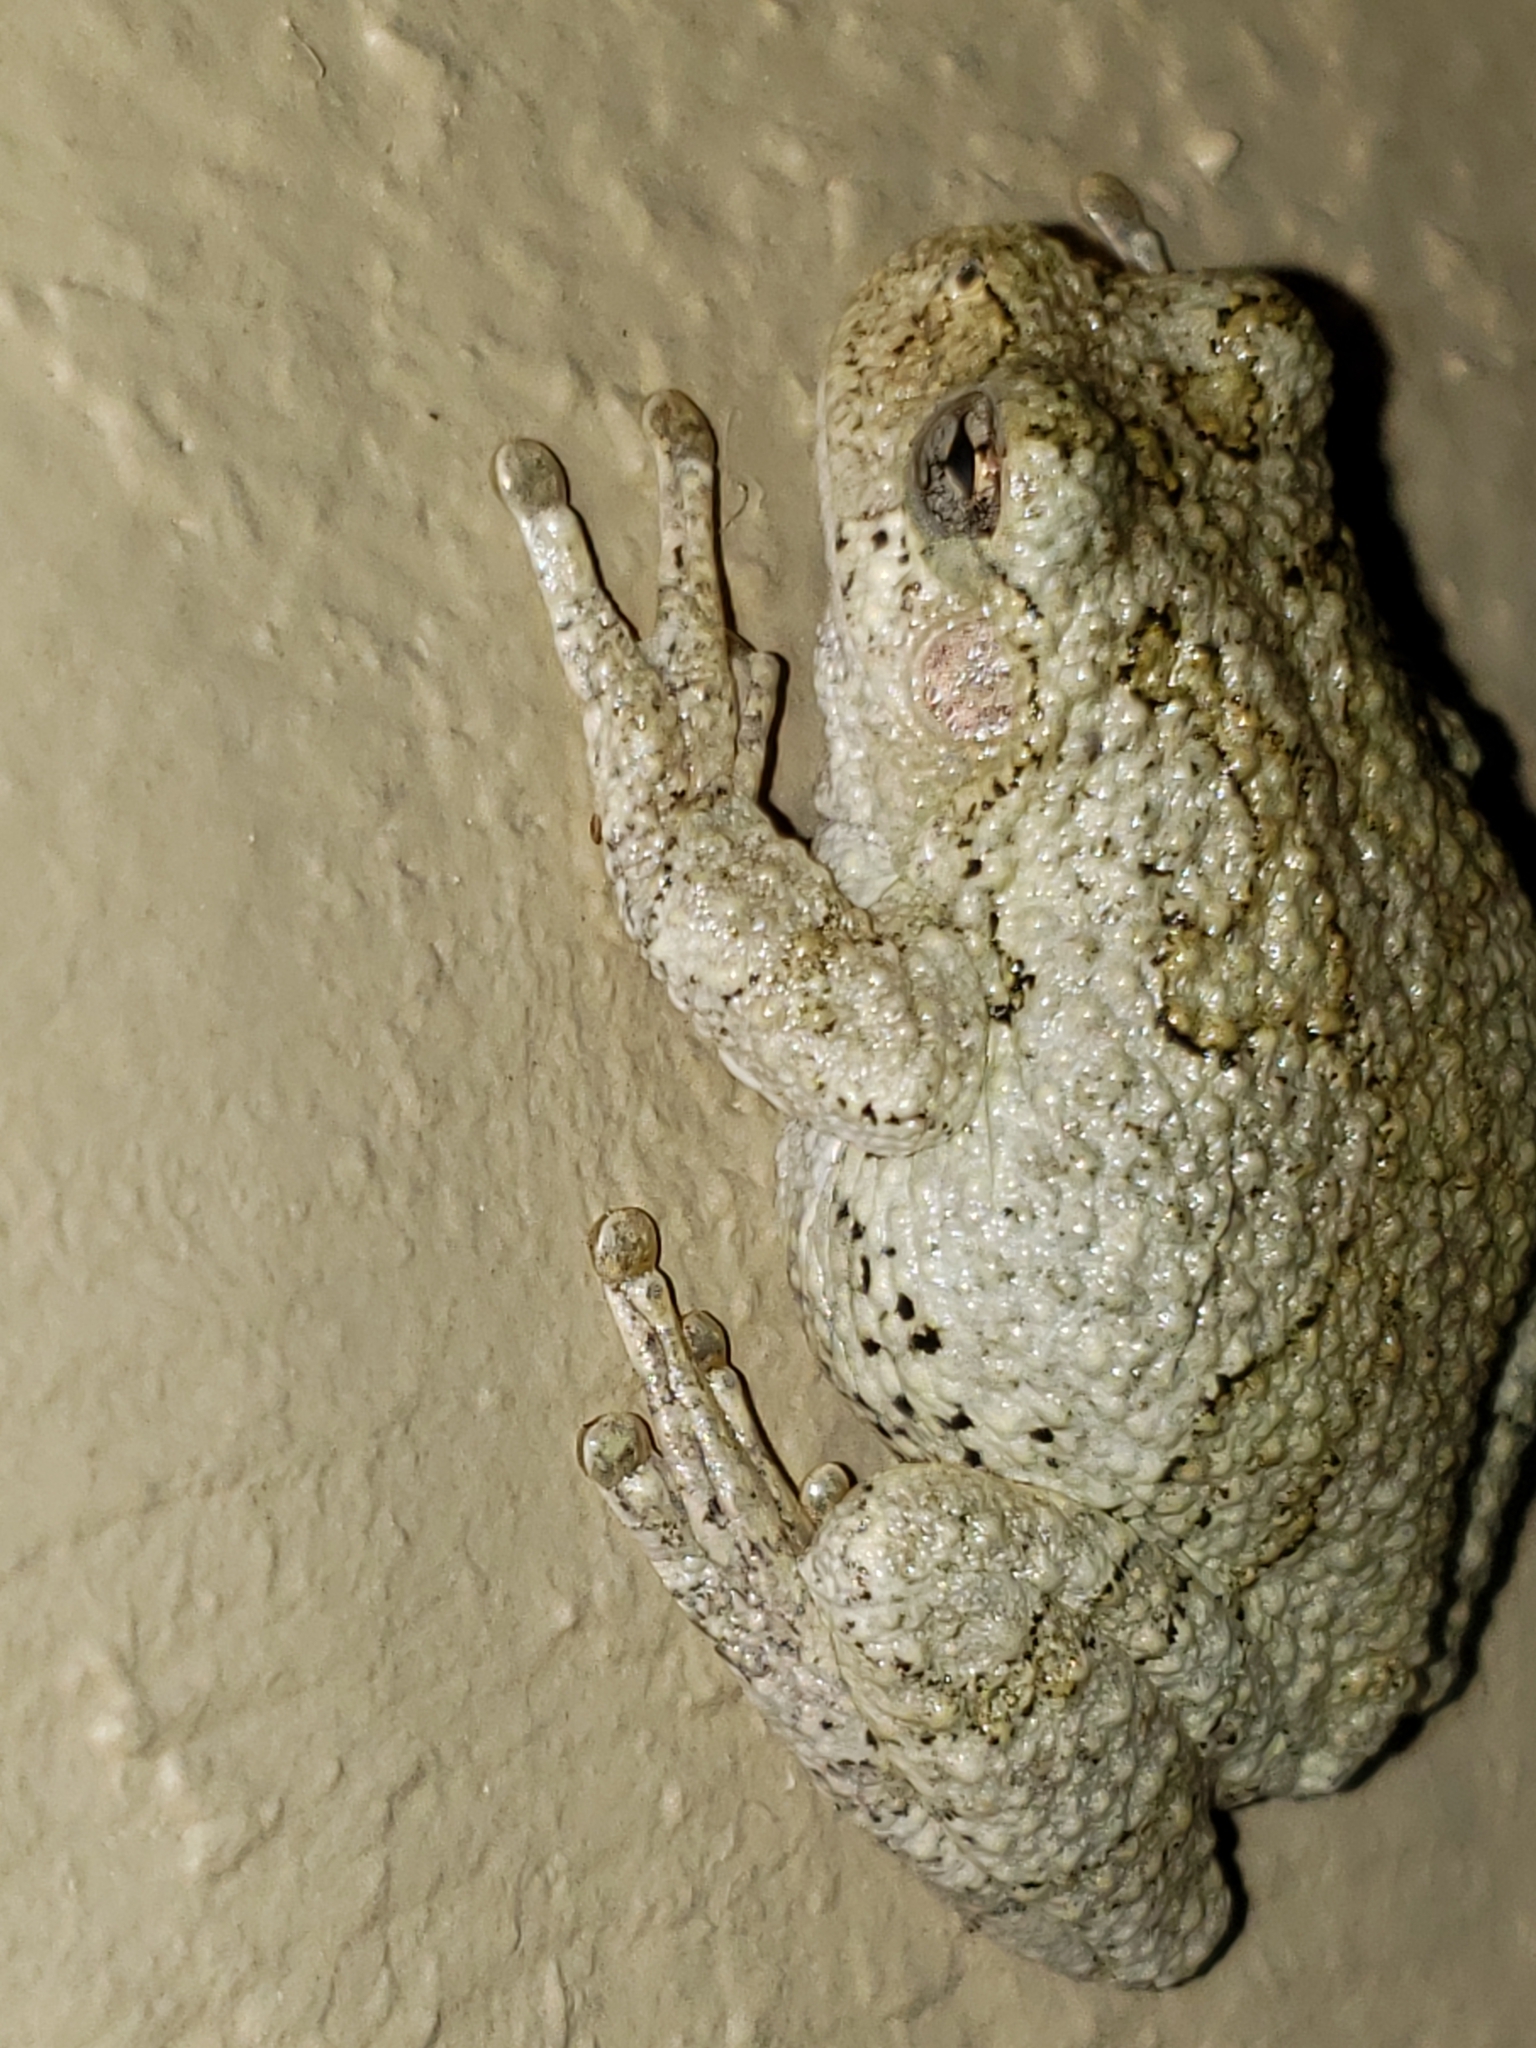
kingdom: Animalia
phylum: Chordata
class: Amphibia
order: Anura
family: Hylidae
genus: Hyla
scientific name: Hyla
